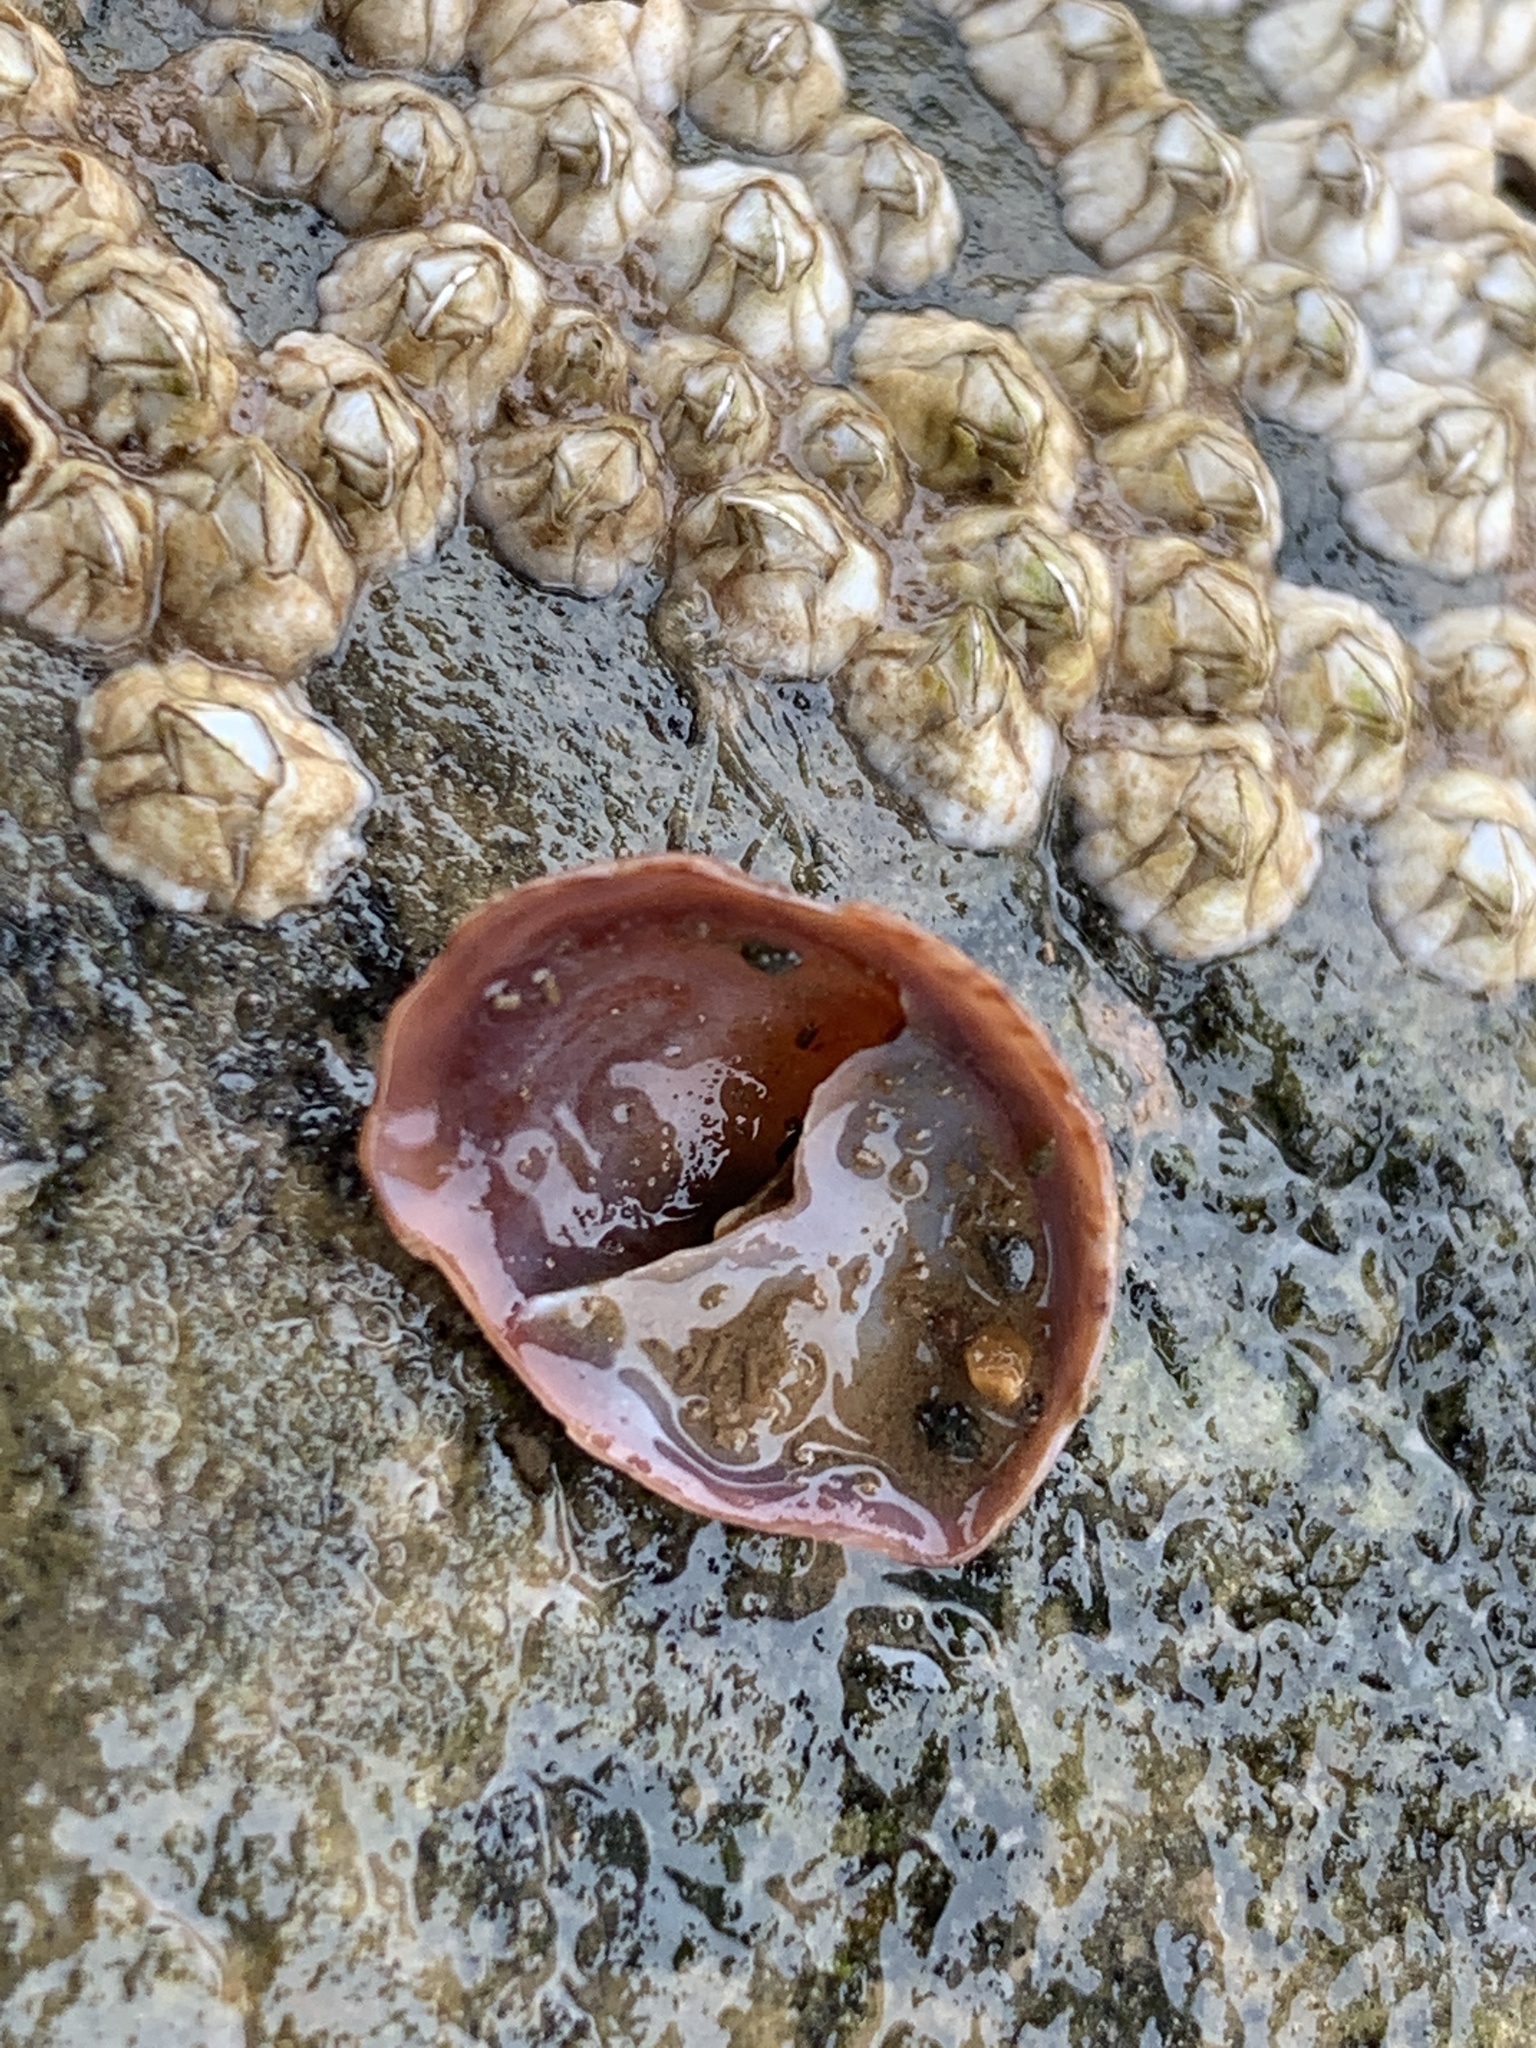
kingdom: Animalia
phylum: Mollusca
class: Gastropoda
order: Littorinimorpha
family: Calyptraeidae
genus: Crepidula
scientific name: Crepidula fornicata
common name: Slipper limpet
